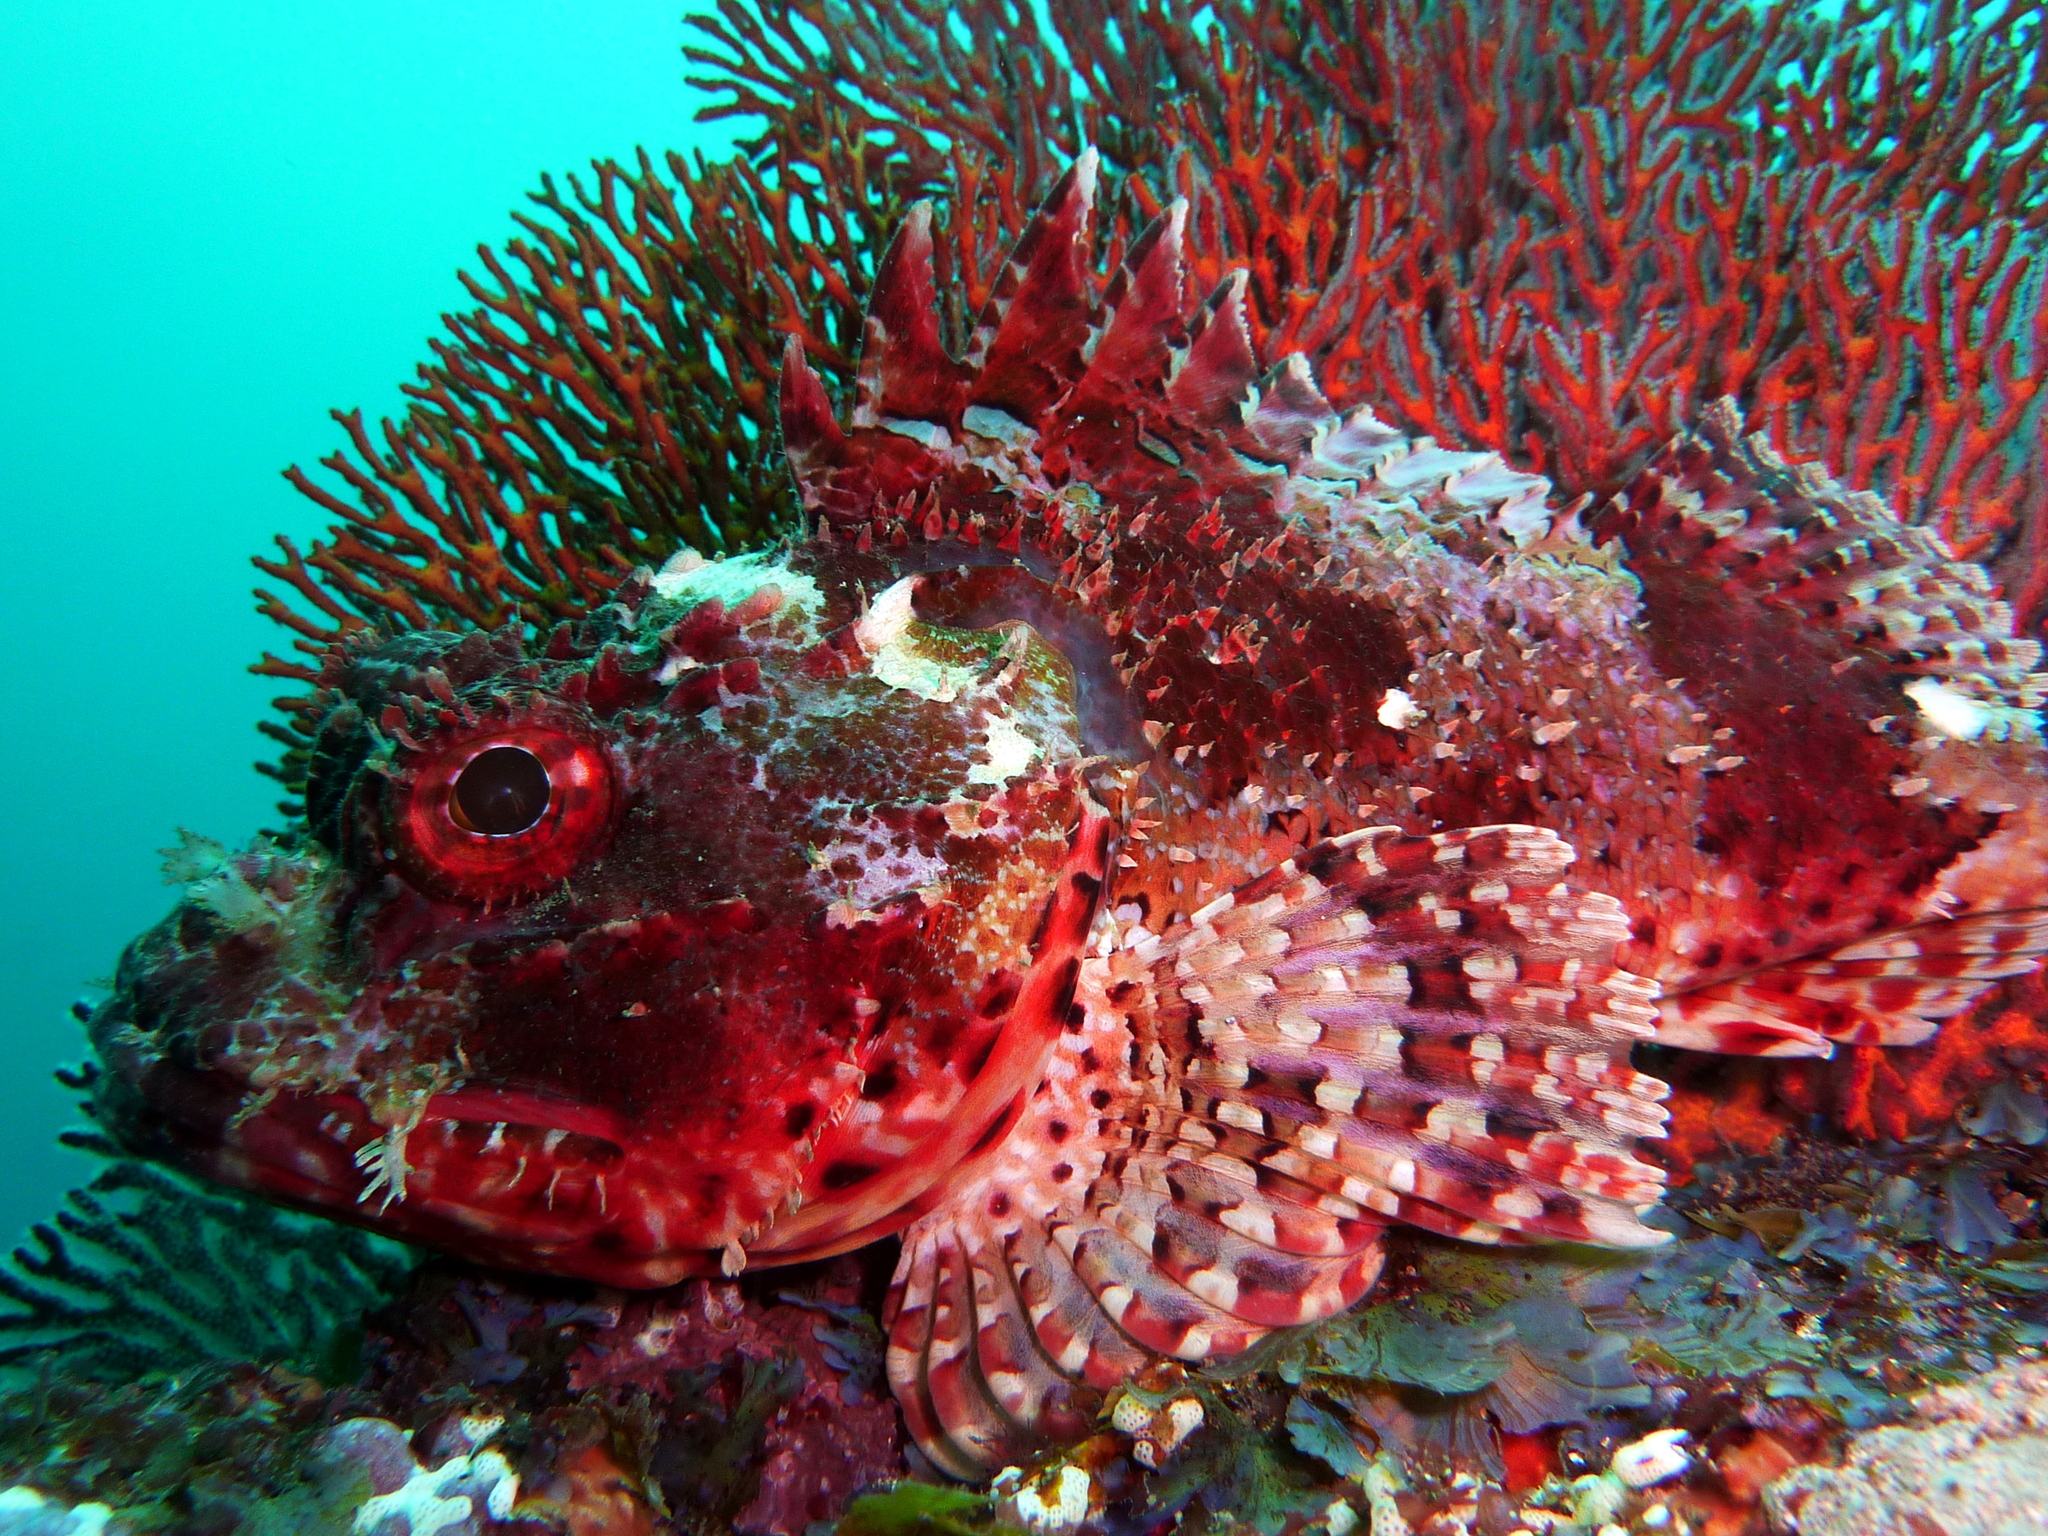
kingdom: Animalia
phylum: Chordata
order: Scorpaeniformes
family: Scorpaenidae
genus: Scorpaena
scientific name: Scorpaena jacksoniensis
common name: Eastern red scorpionfish
